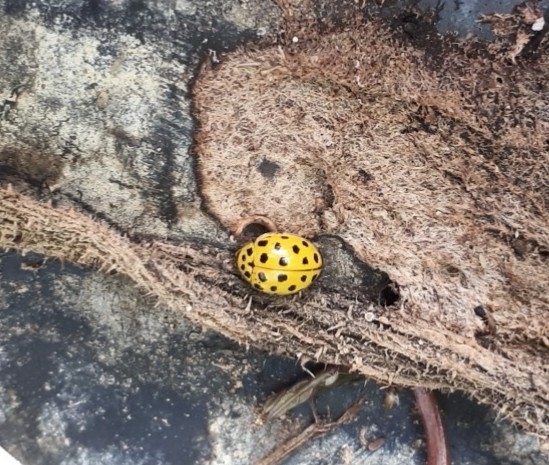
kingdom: Animalia
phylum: Arthropoda
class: Insecta
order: Coleoptera
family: Coccinellidae
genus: Psyllobora
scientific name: Psyllobora vigintiduopunctata
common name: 22-spot ladybird
